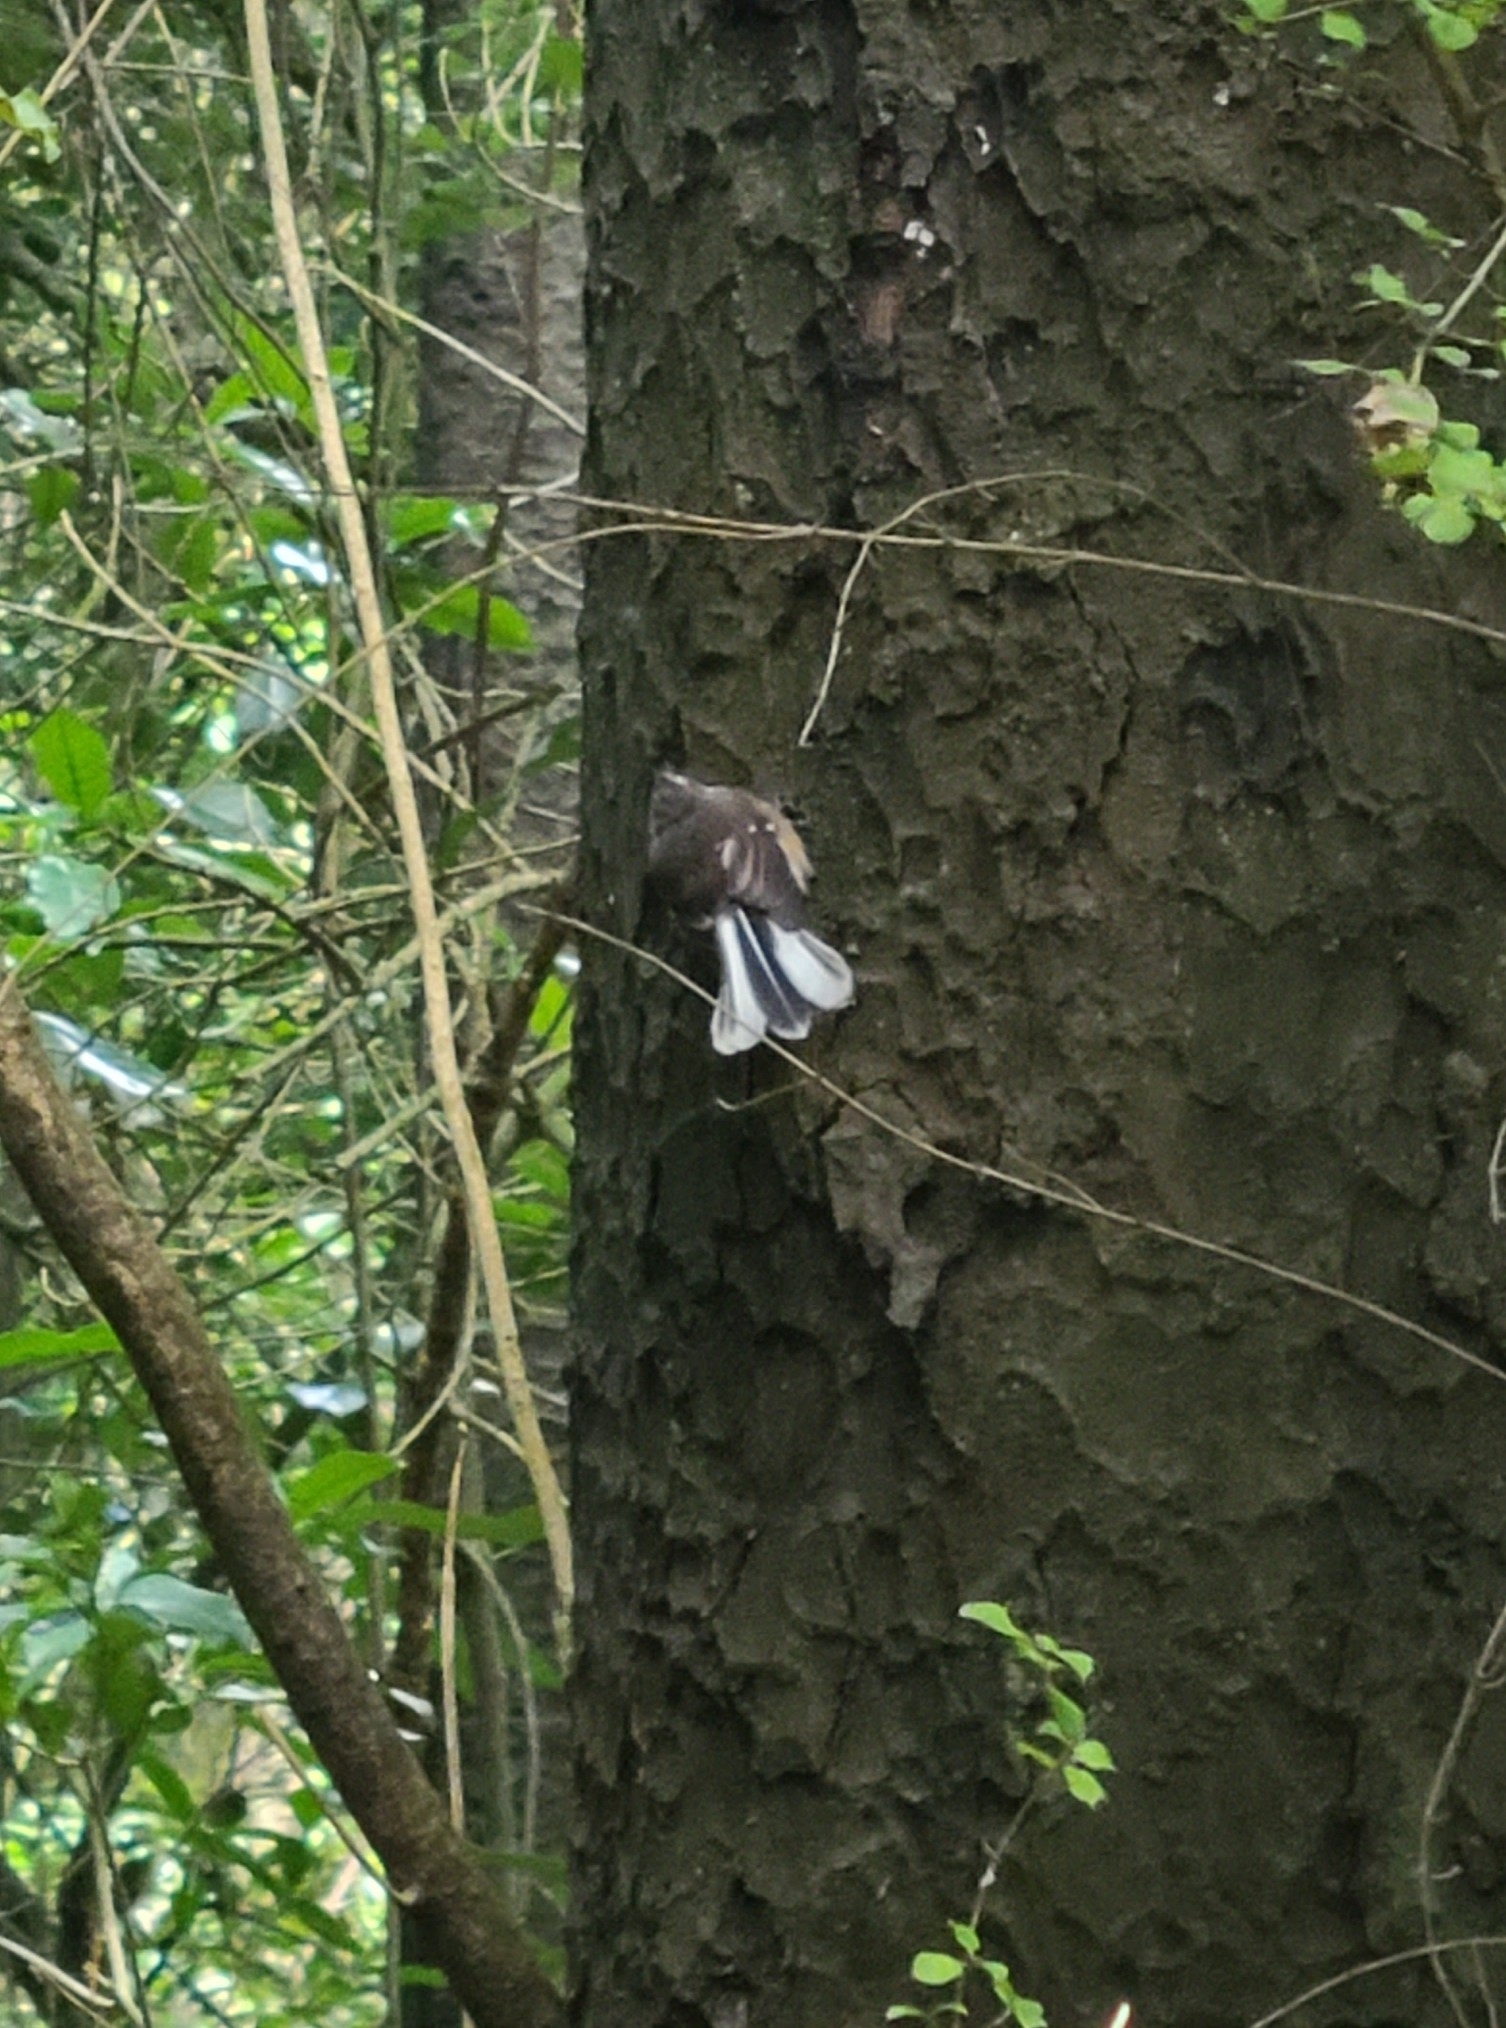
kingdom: Animalia
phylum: Chordata
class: Aves
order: Passeriformes
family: Rhipiduridae
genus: Rhipidura
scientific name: Rhipidura fuliginosa
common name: New zealand fantail
